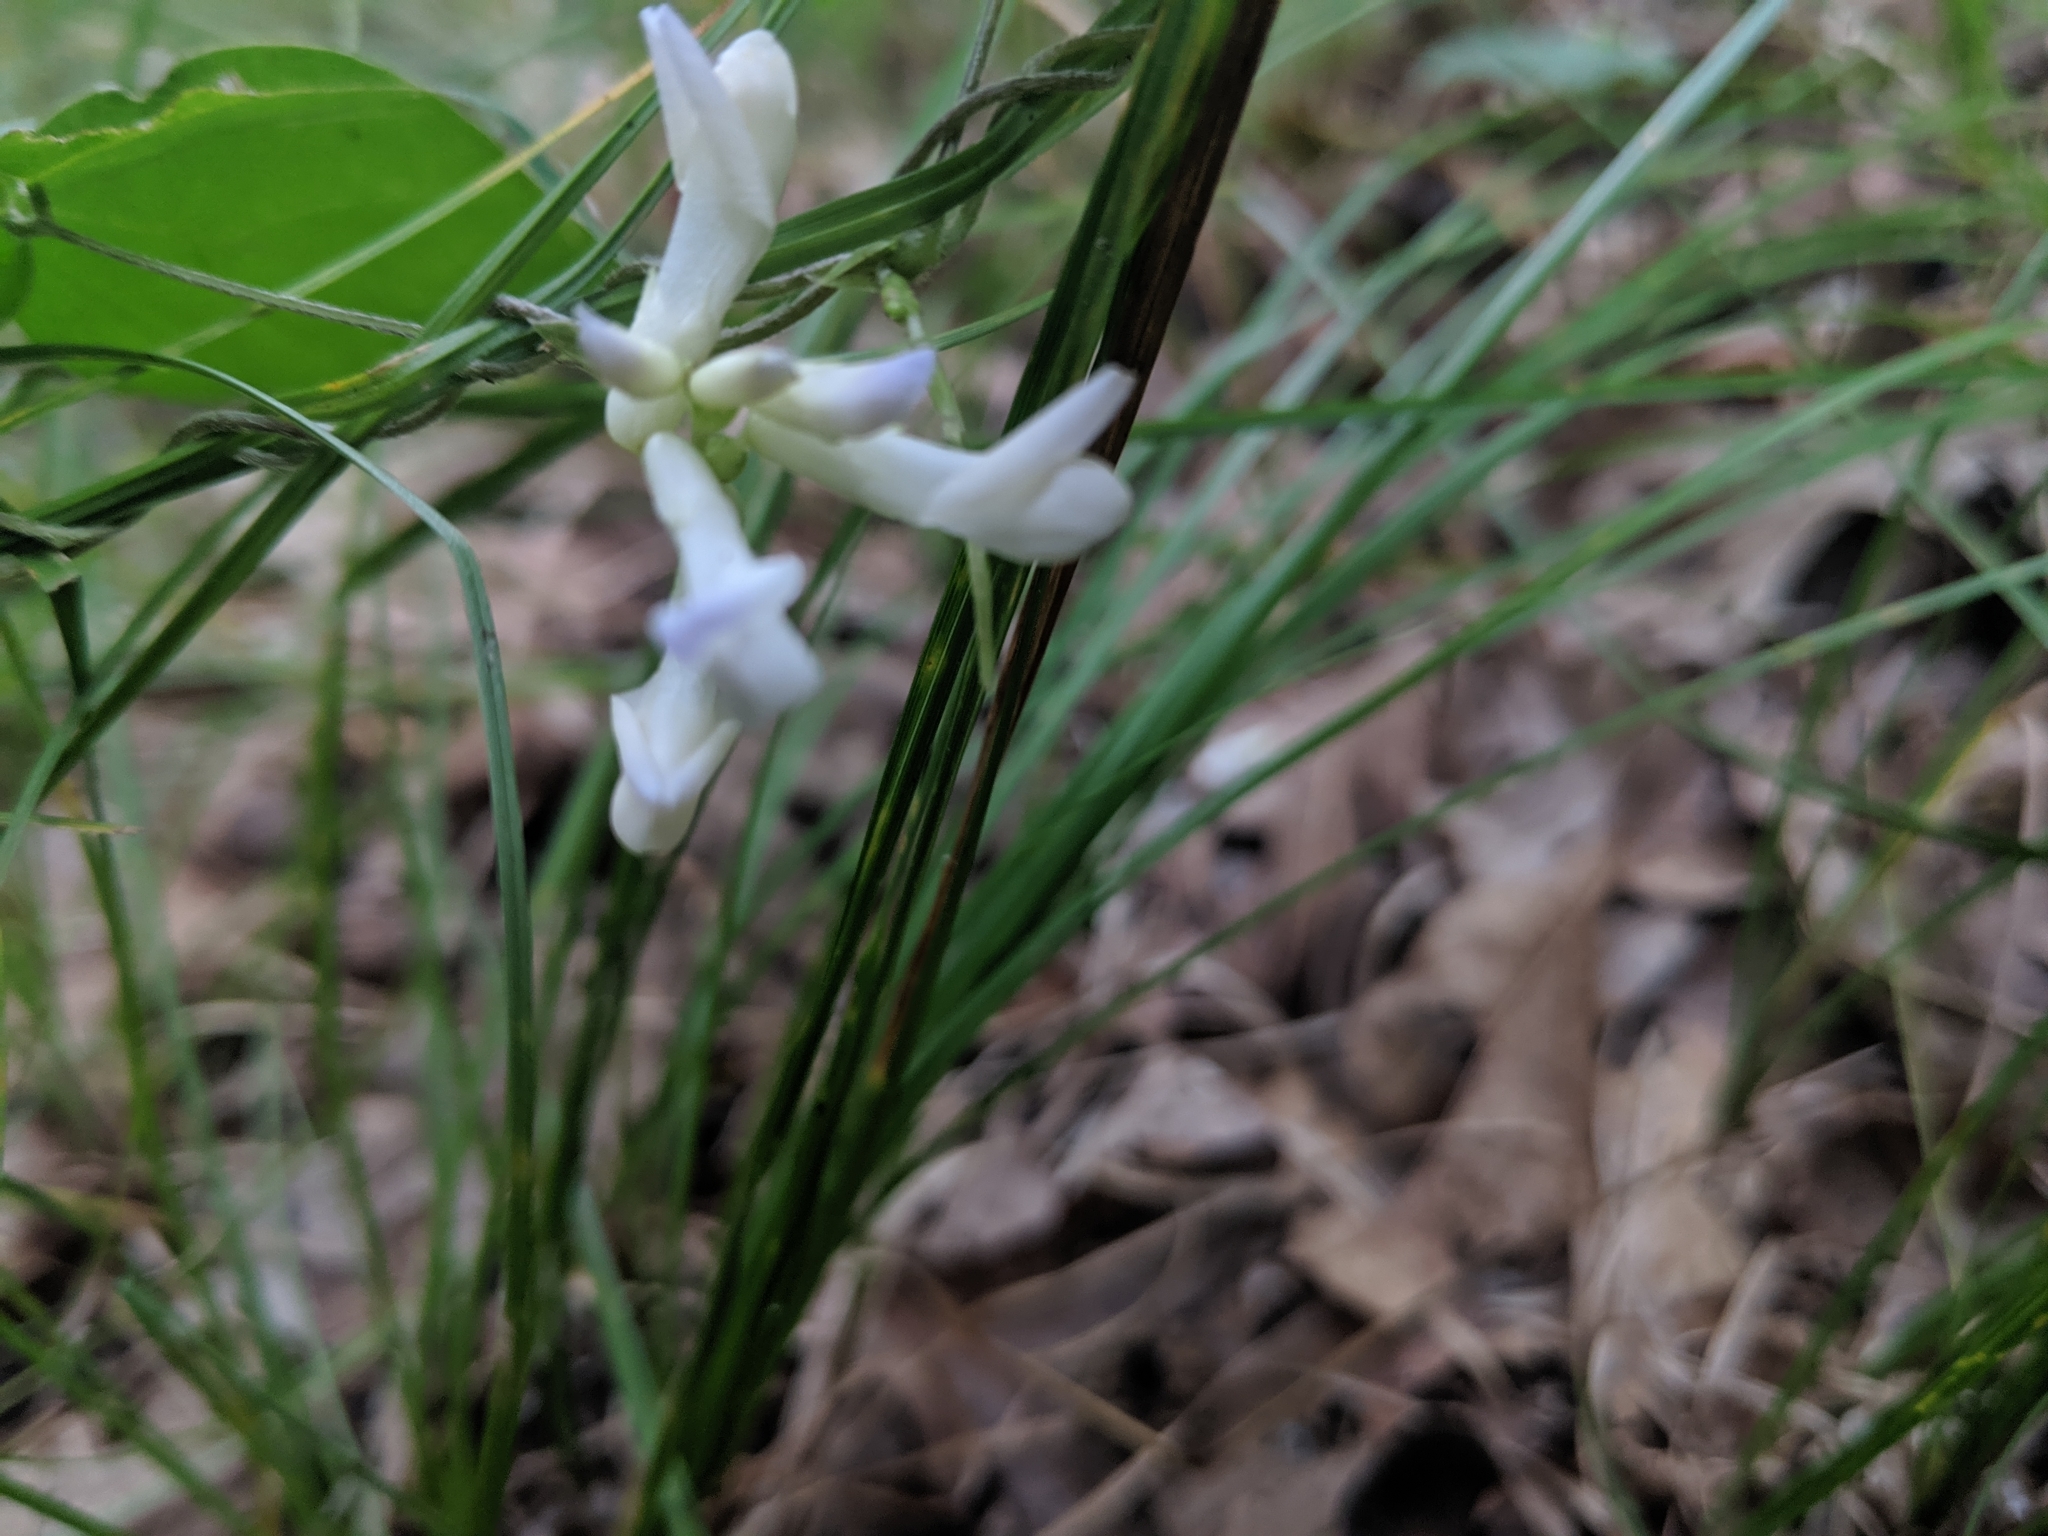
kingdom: Plantae
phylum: Tracheophyta
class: Magnoliopsida
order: Fabales
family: Fabaceae
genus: Amphicarpaea
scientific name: Amphicarpaea bracteata
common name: American hog peanut
